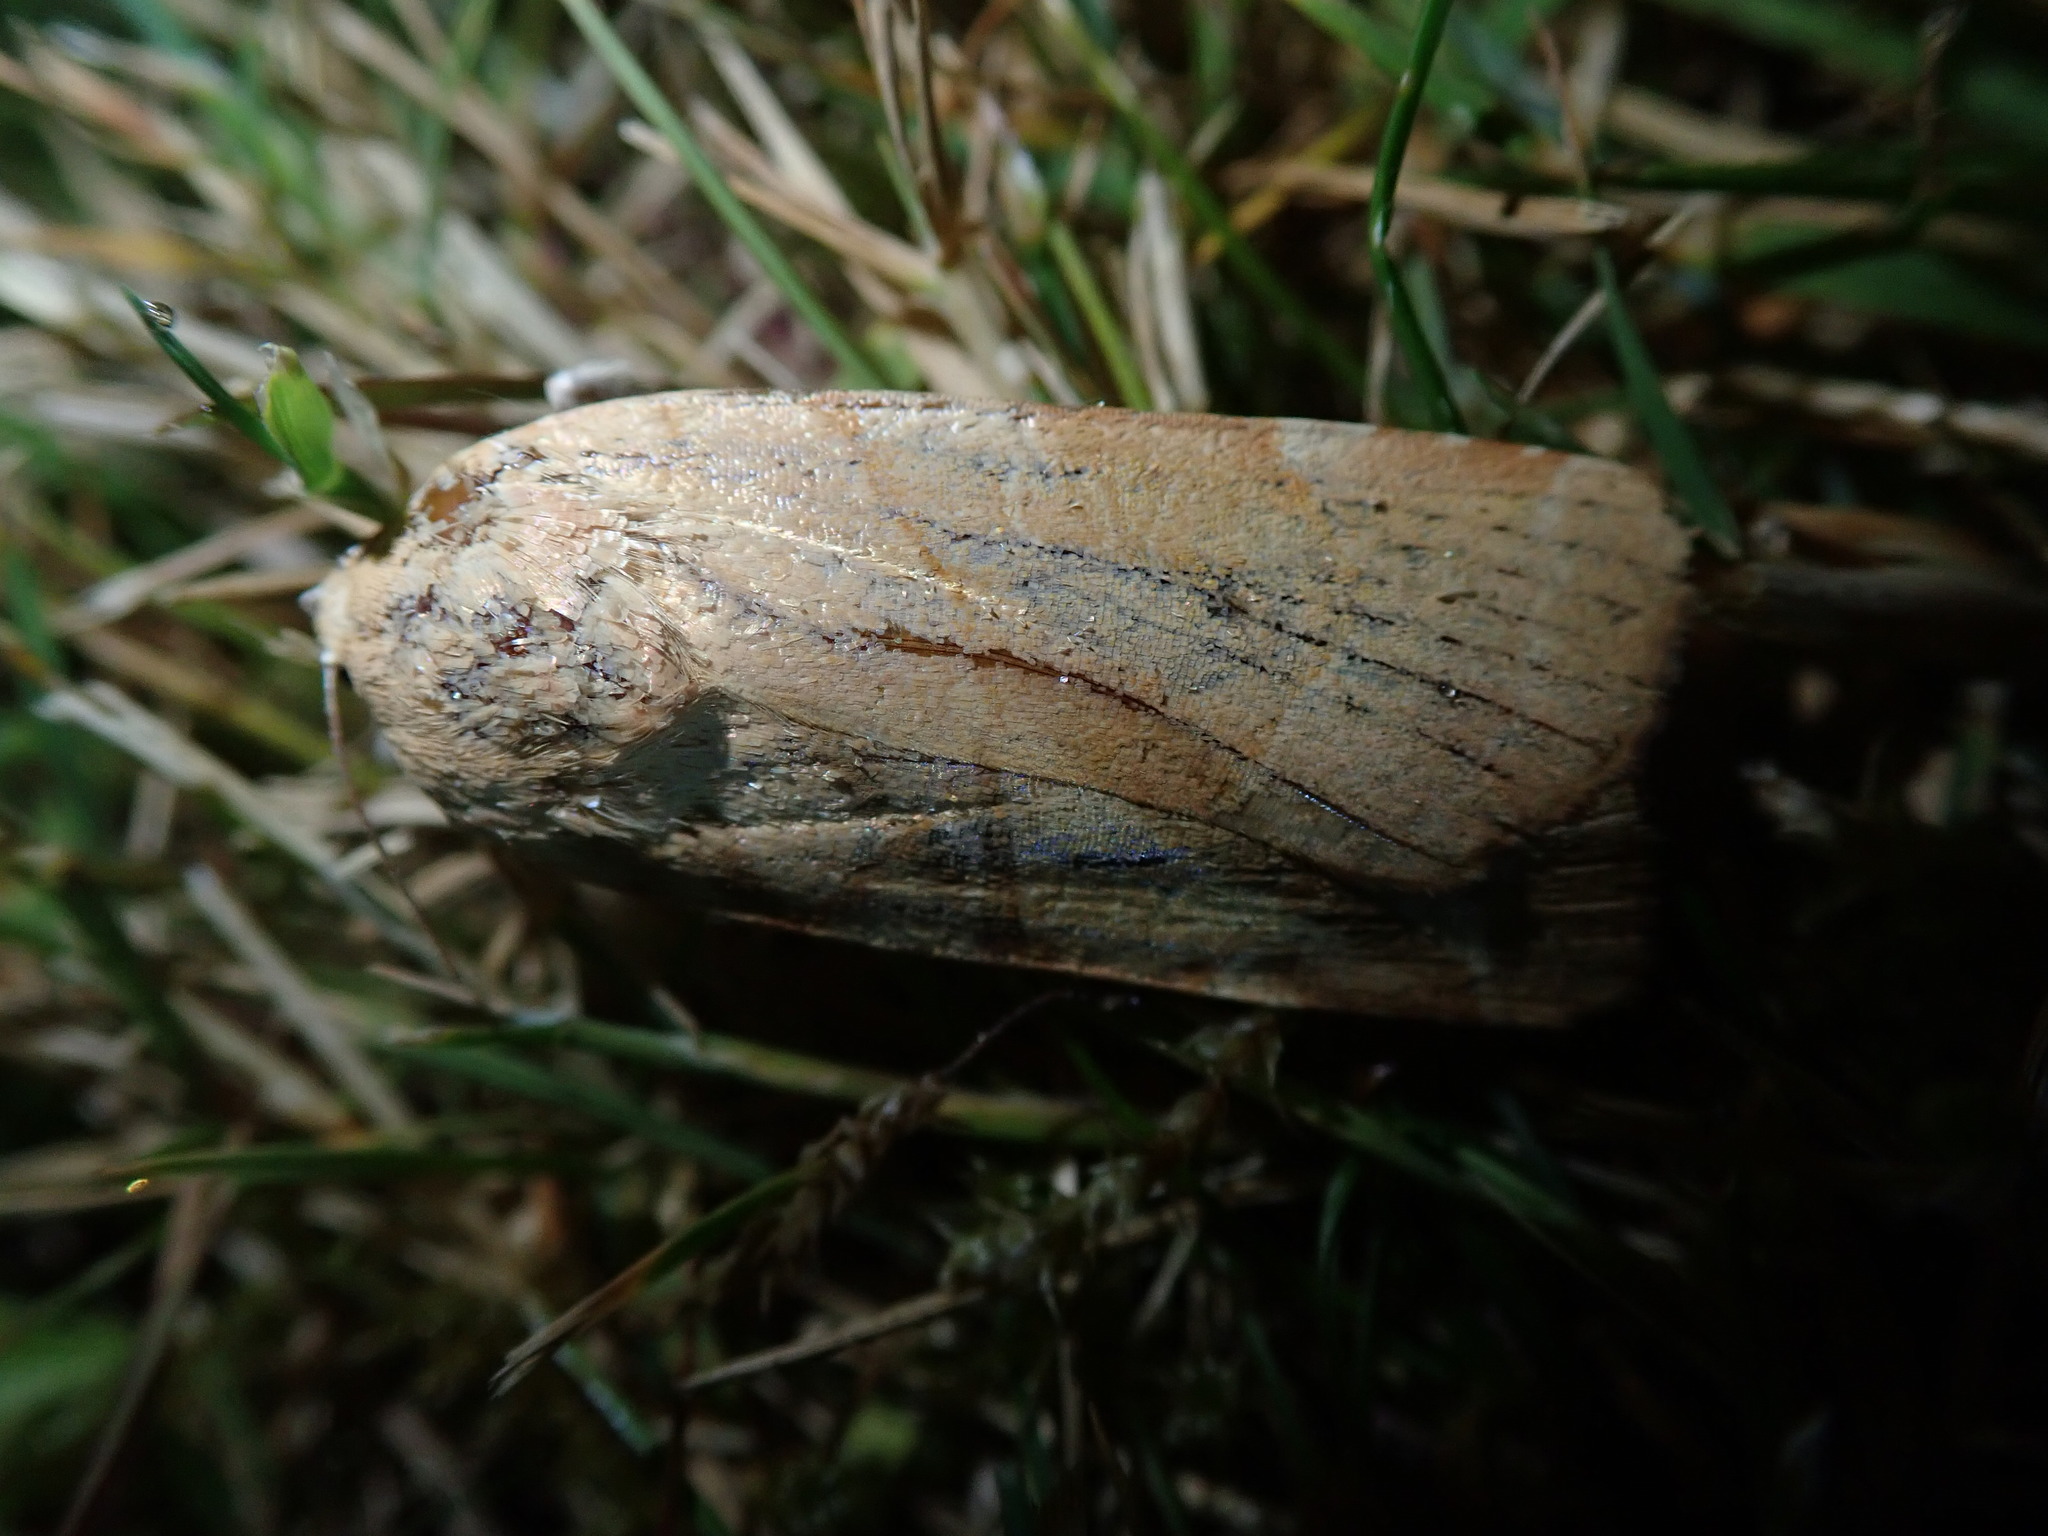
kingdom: Animalia
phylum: Arthropoda
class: Insecta
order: Lepidoptera
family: Noctuidae
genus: Noctua
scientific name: Noctua fimbriata
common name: Broad-bordered yellow underwing
